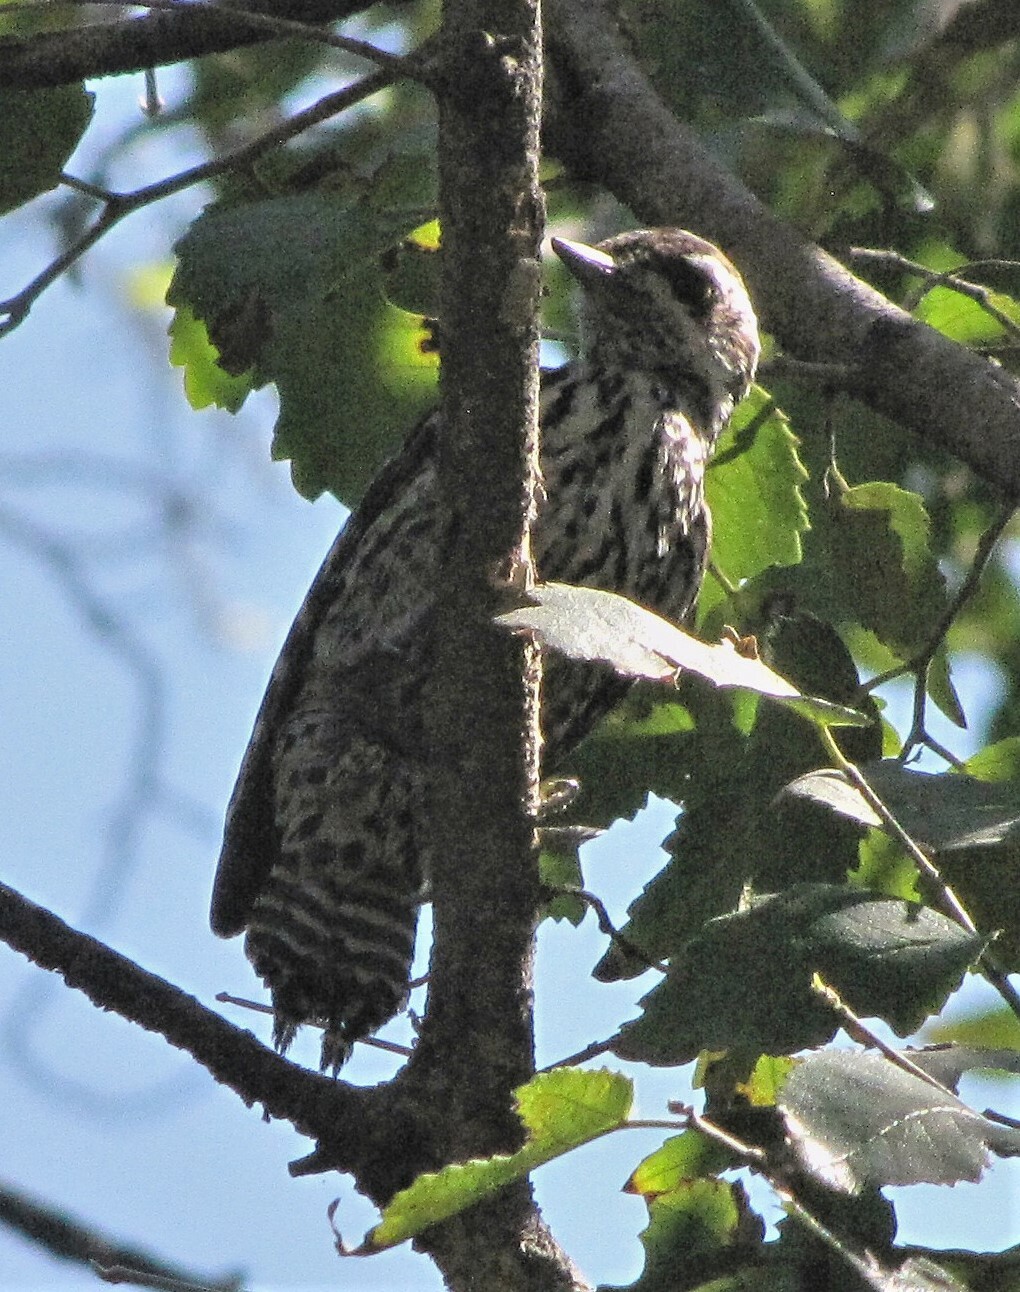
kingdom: Animalia
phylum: Chordata
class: Aves
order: Piciformes
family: Picidae
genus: Veniliornis
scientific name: Veniliornis mixtus
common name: Checkered woodpecker
